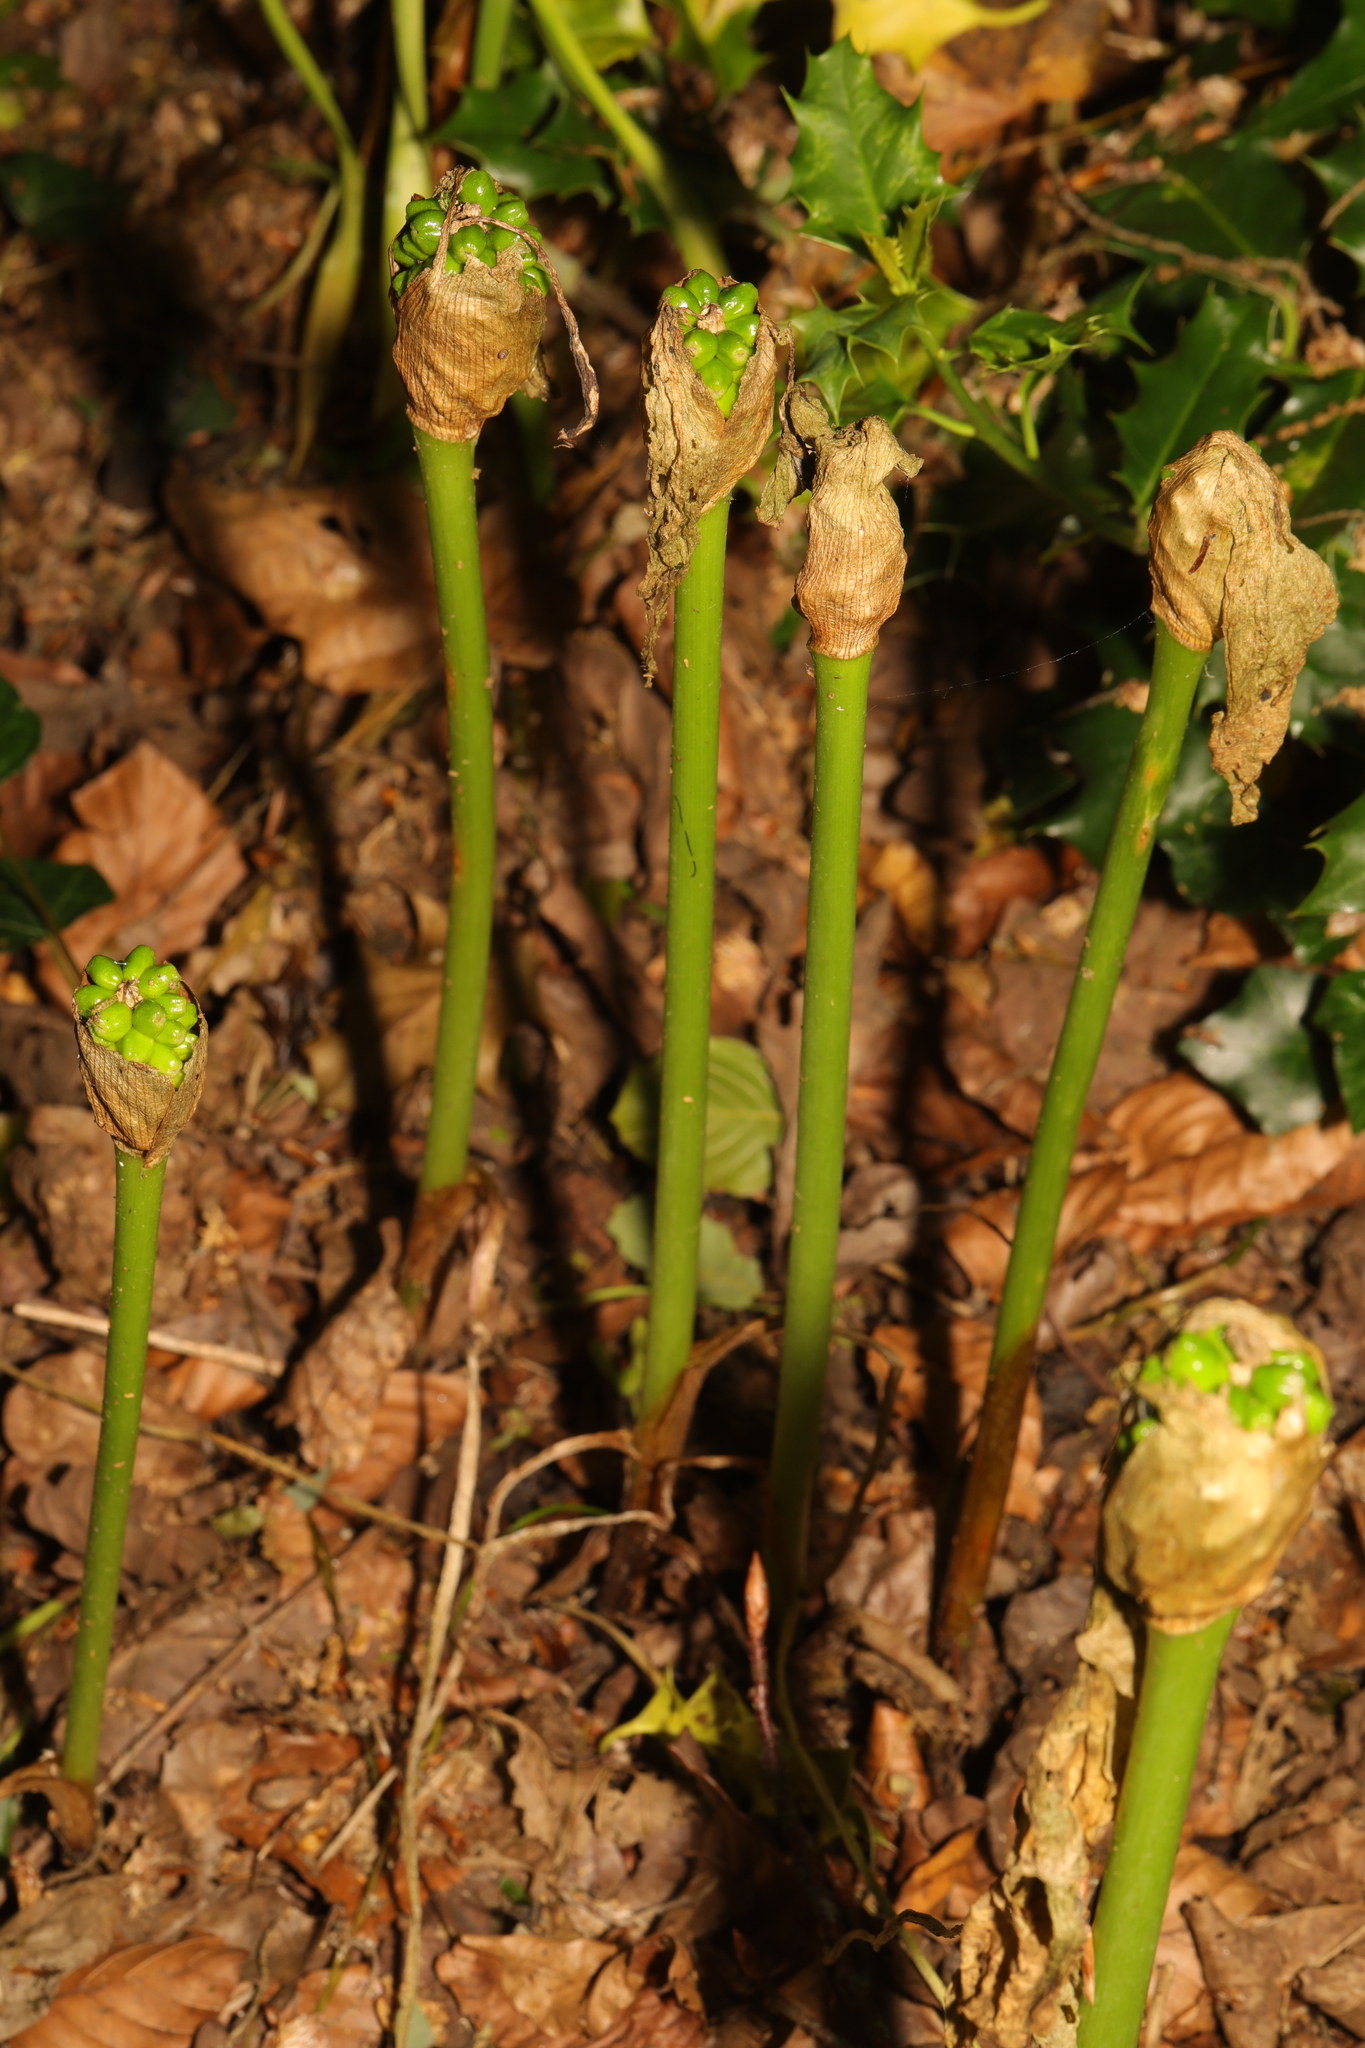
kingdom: Plantae
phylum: Tracheophyta
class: Liliopsida
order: Alismatales
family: Araceae
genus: Arum
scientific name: Arum maculatum
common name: Lords-and-ladies
